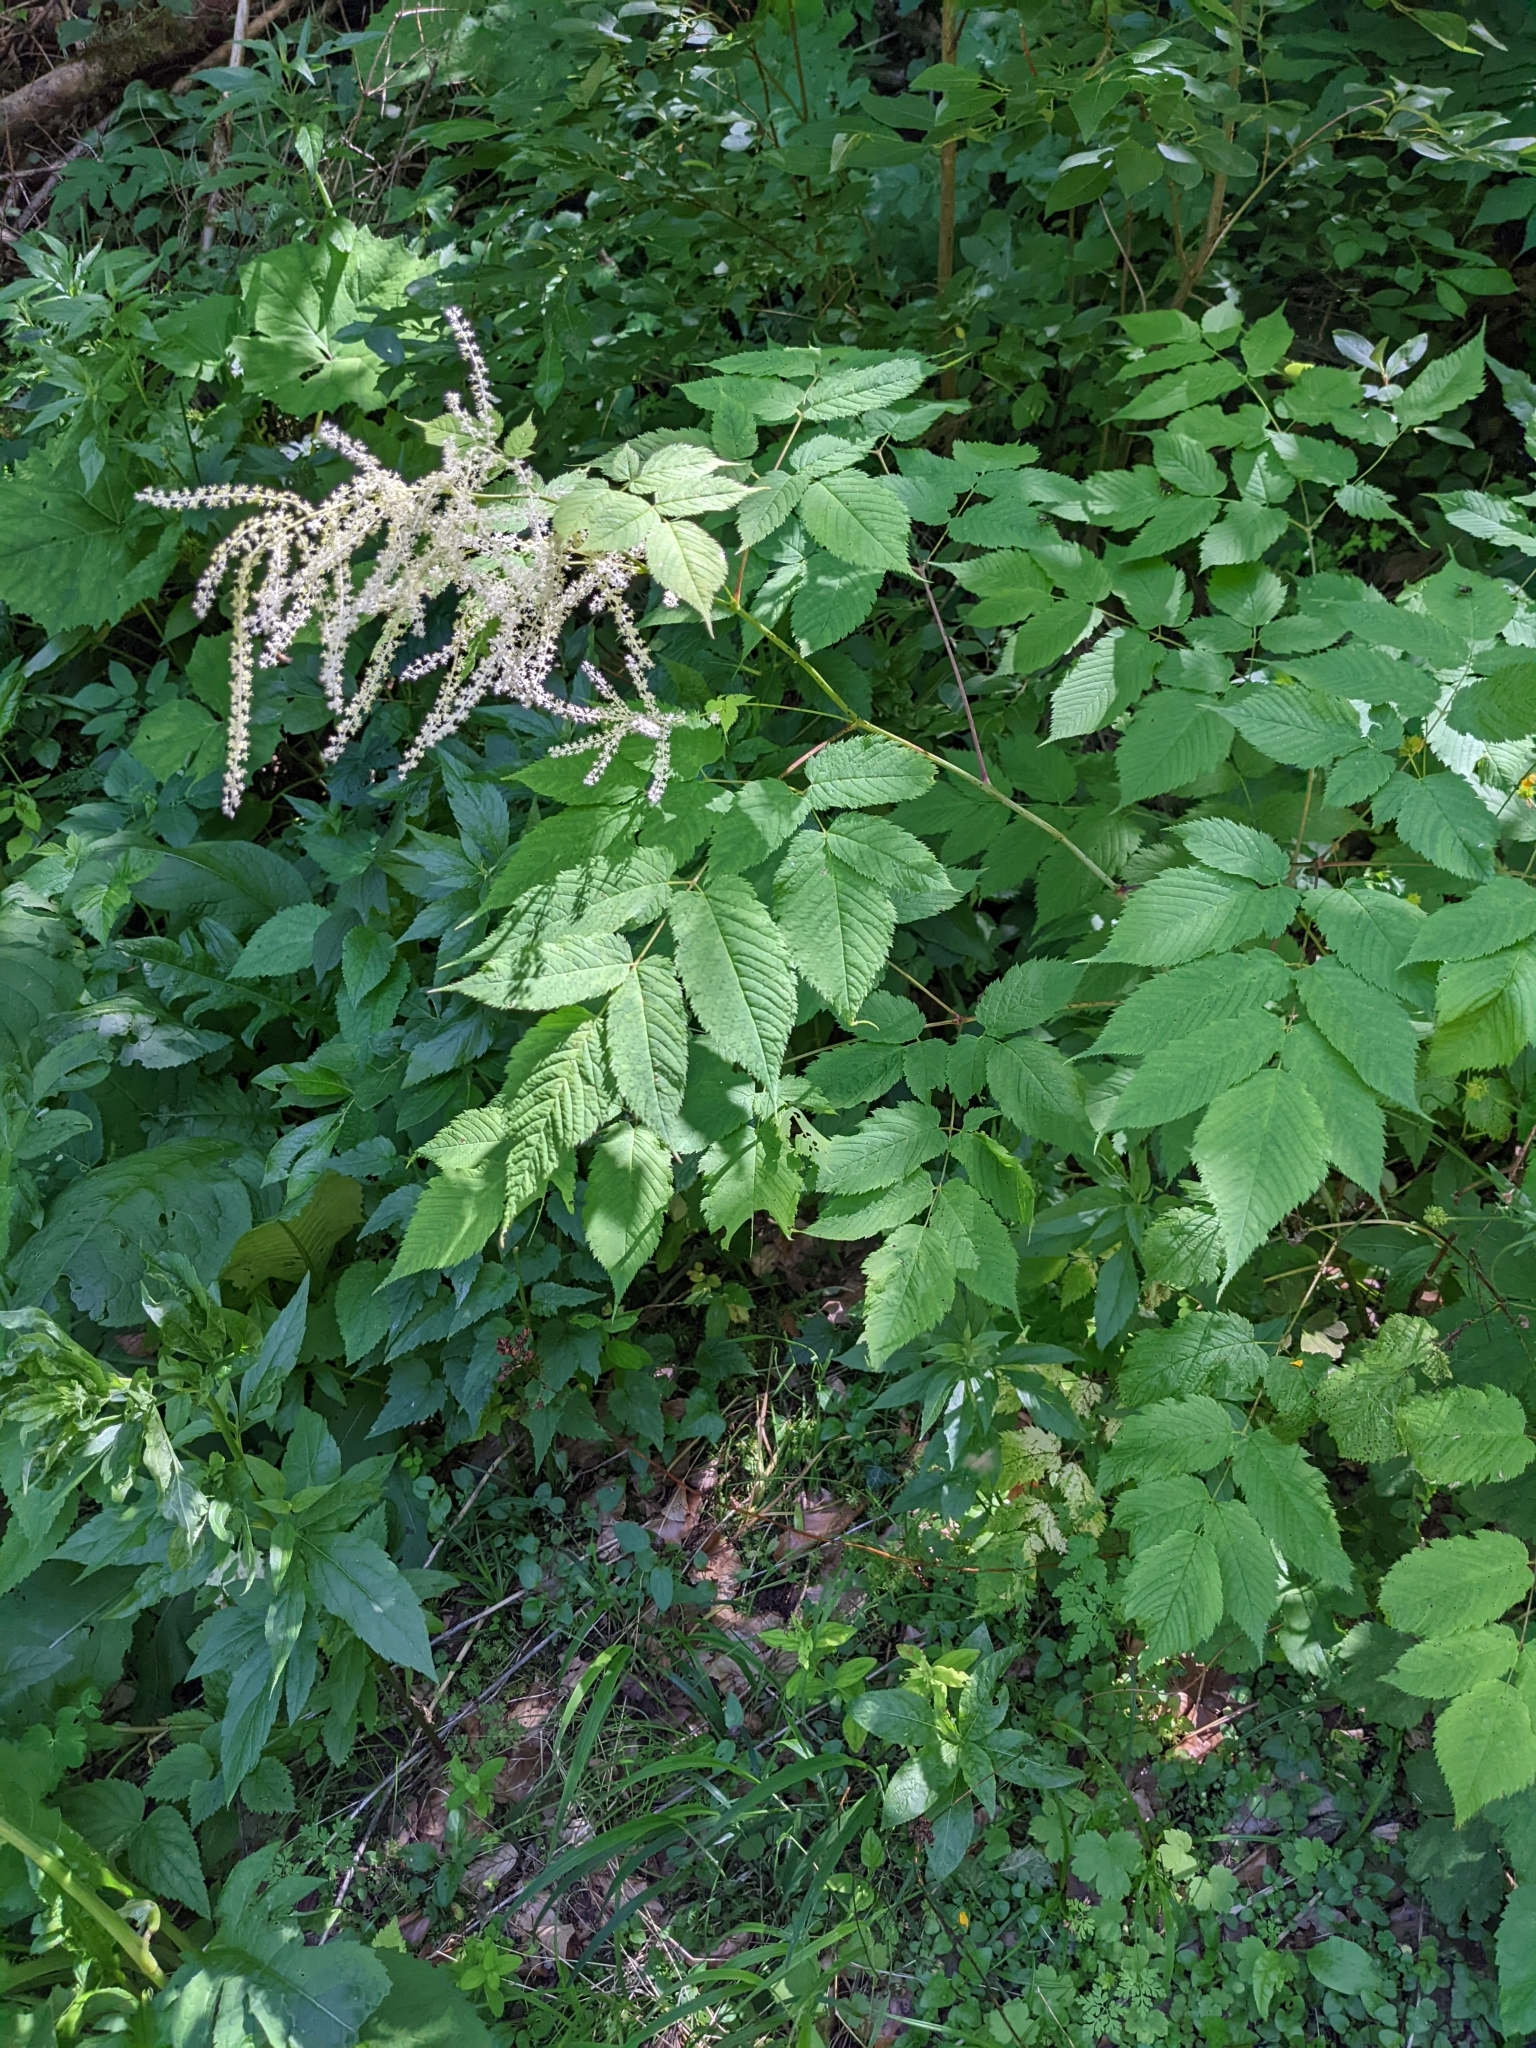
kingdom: Plantae
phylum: Tracheophyta
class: Magnoliopsida
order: Rosales
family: Rosaceae
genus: Aruncus
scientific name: Aruncus dioicus
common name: Buck's-beard
